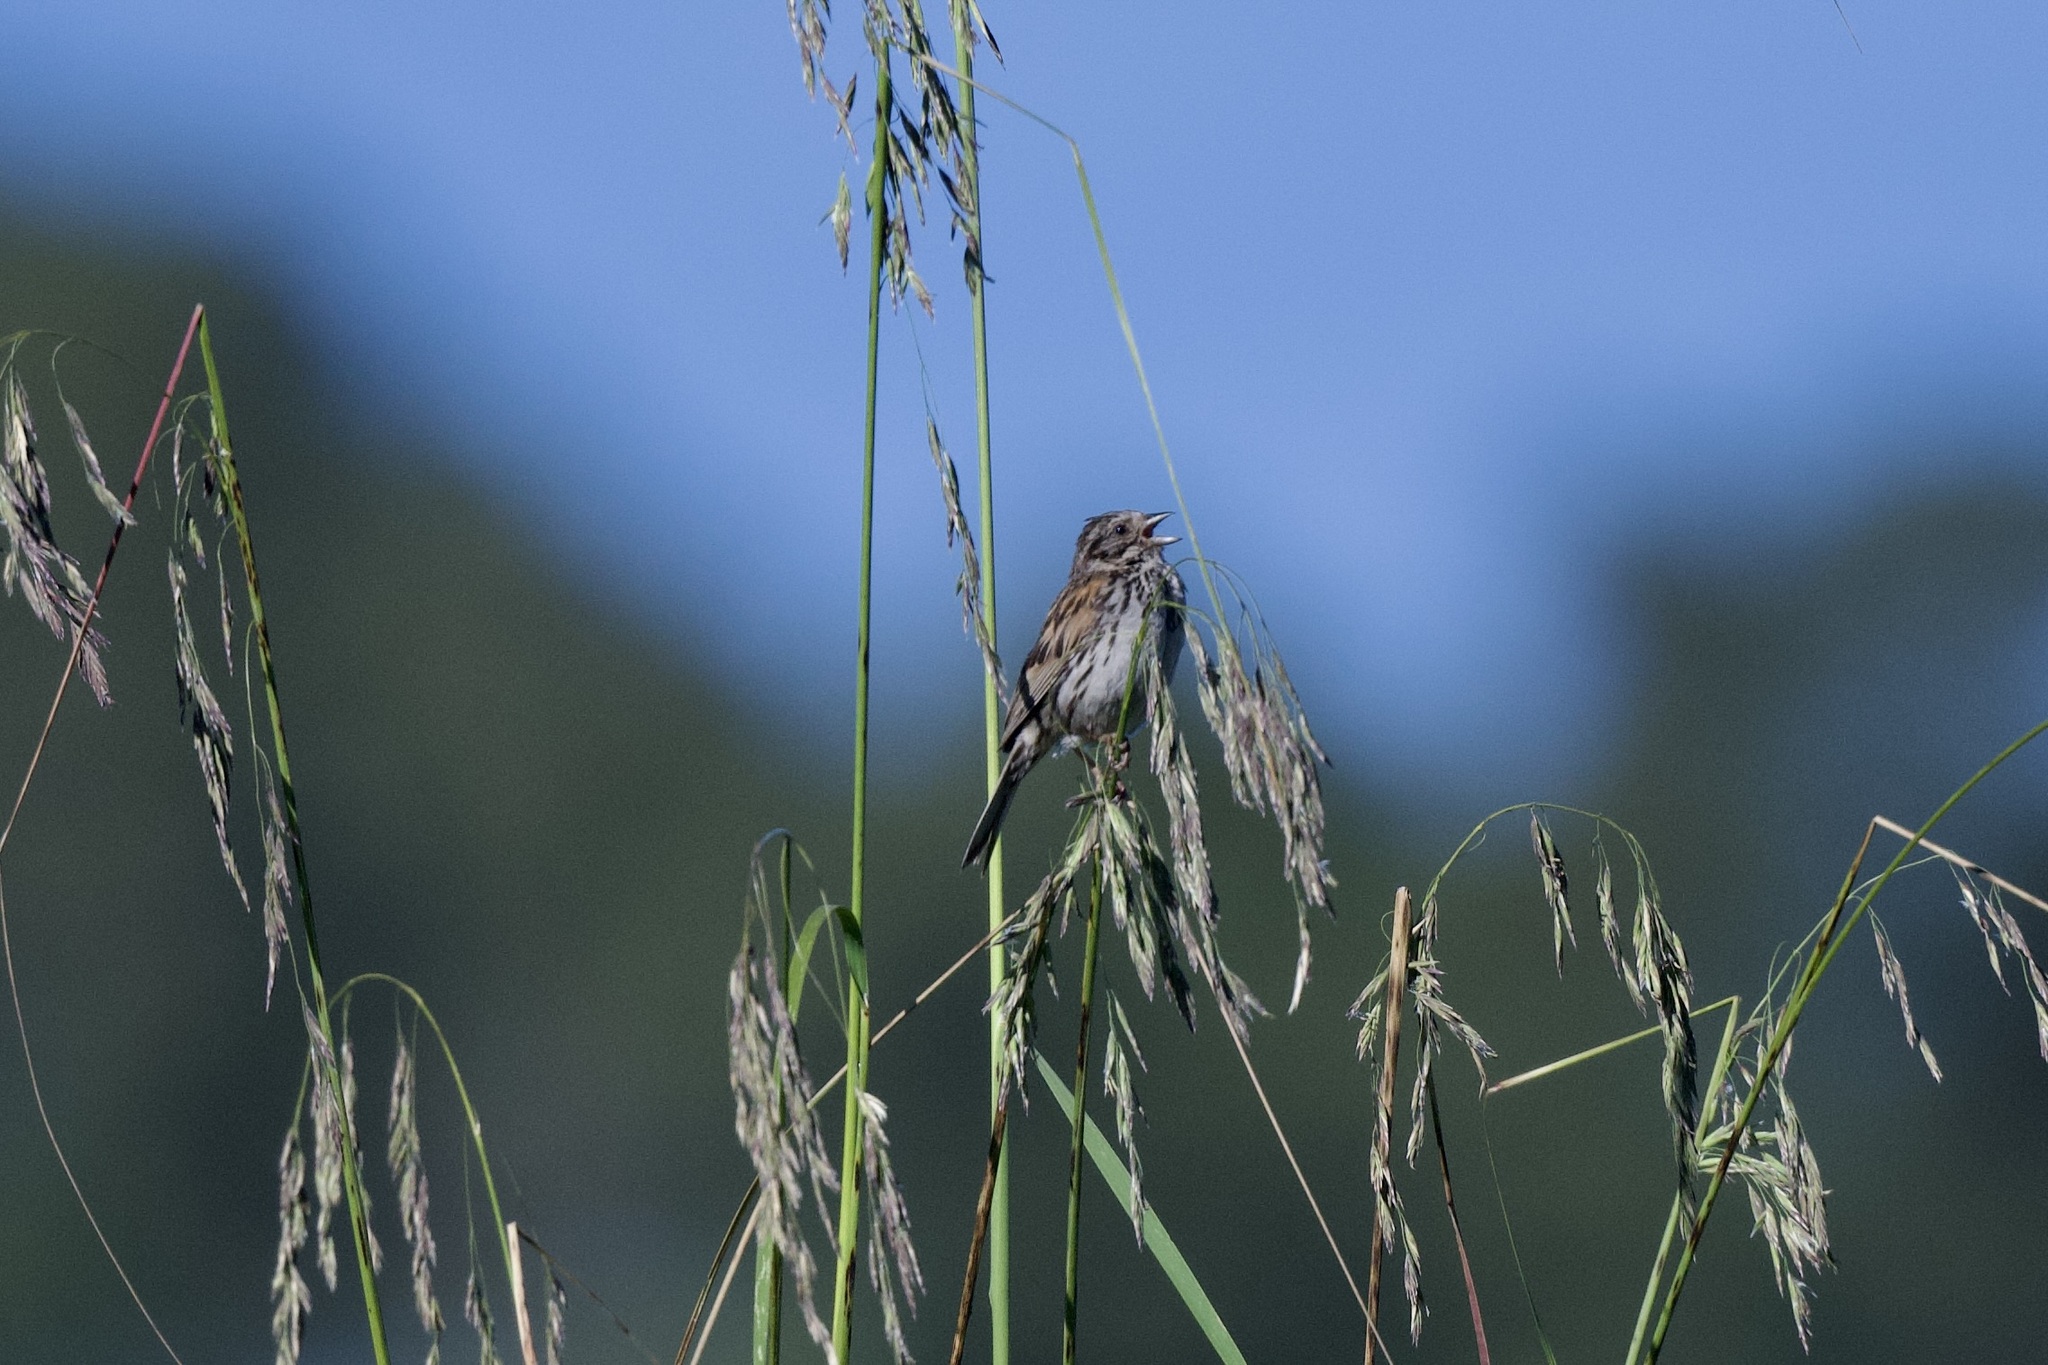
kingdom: Animalia
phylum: Chordata
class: Aves
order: Passeriformes
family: Passerellidae
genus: Xenospiza
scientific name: Xenospiza baileyi
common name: Sierra madre sparrow
